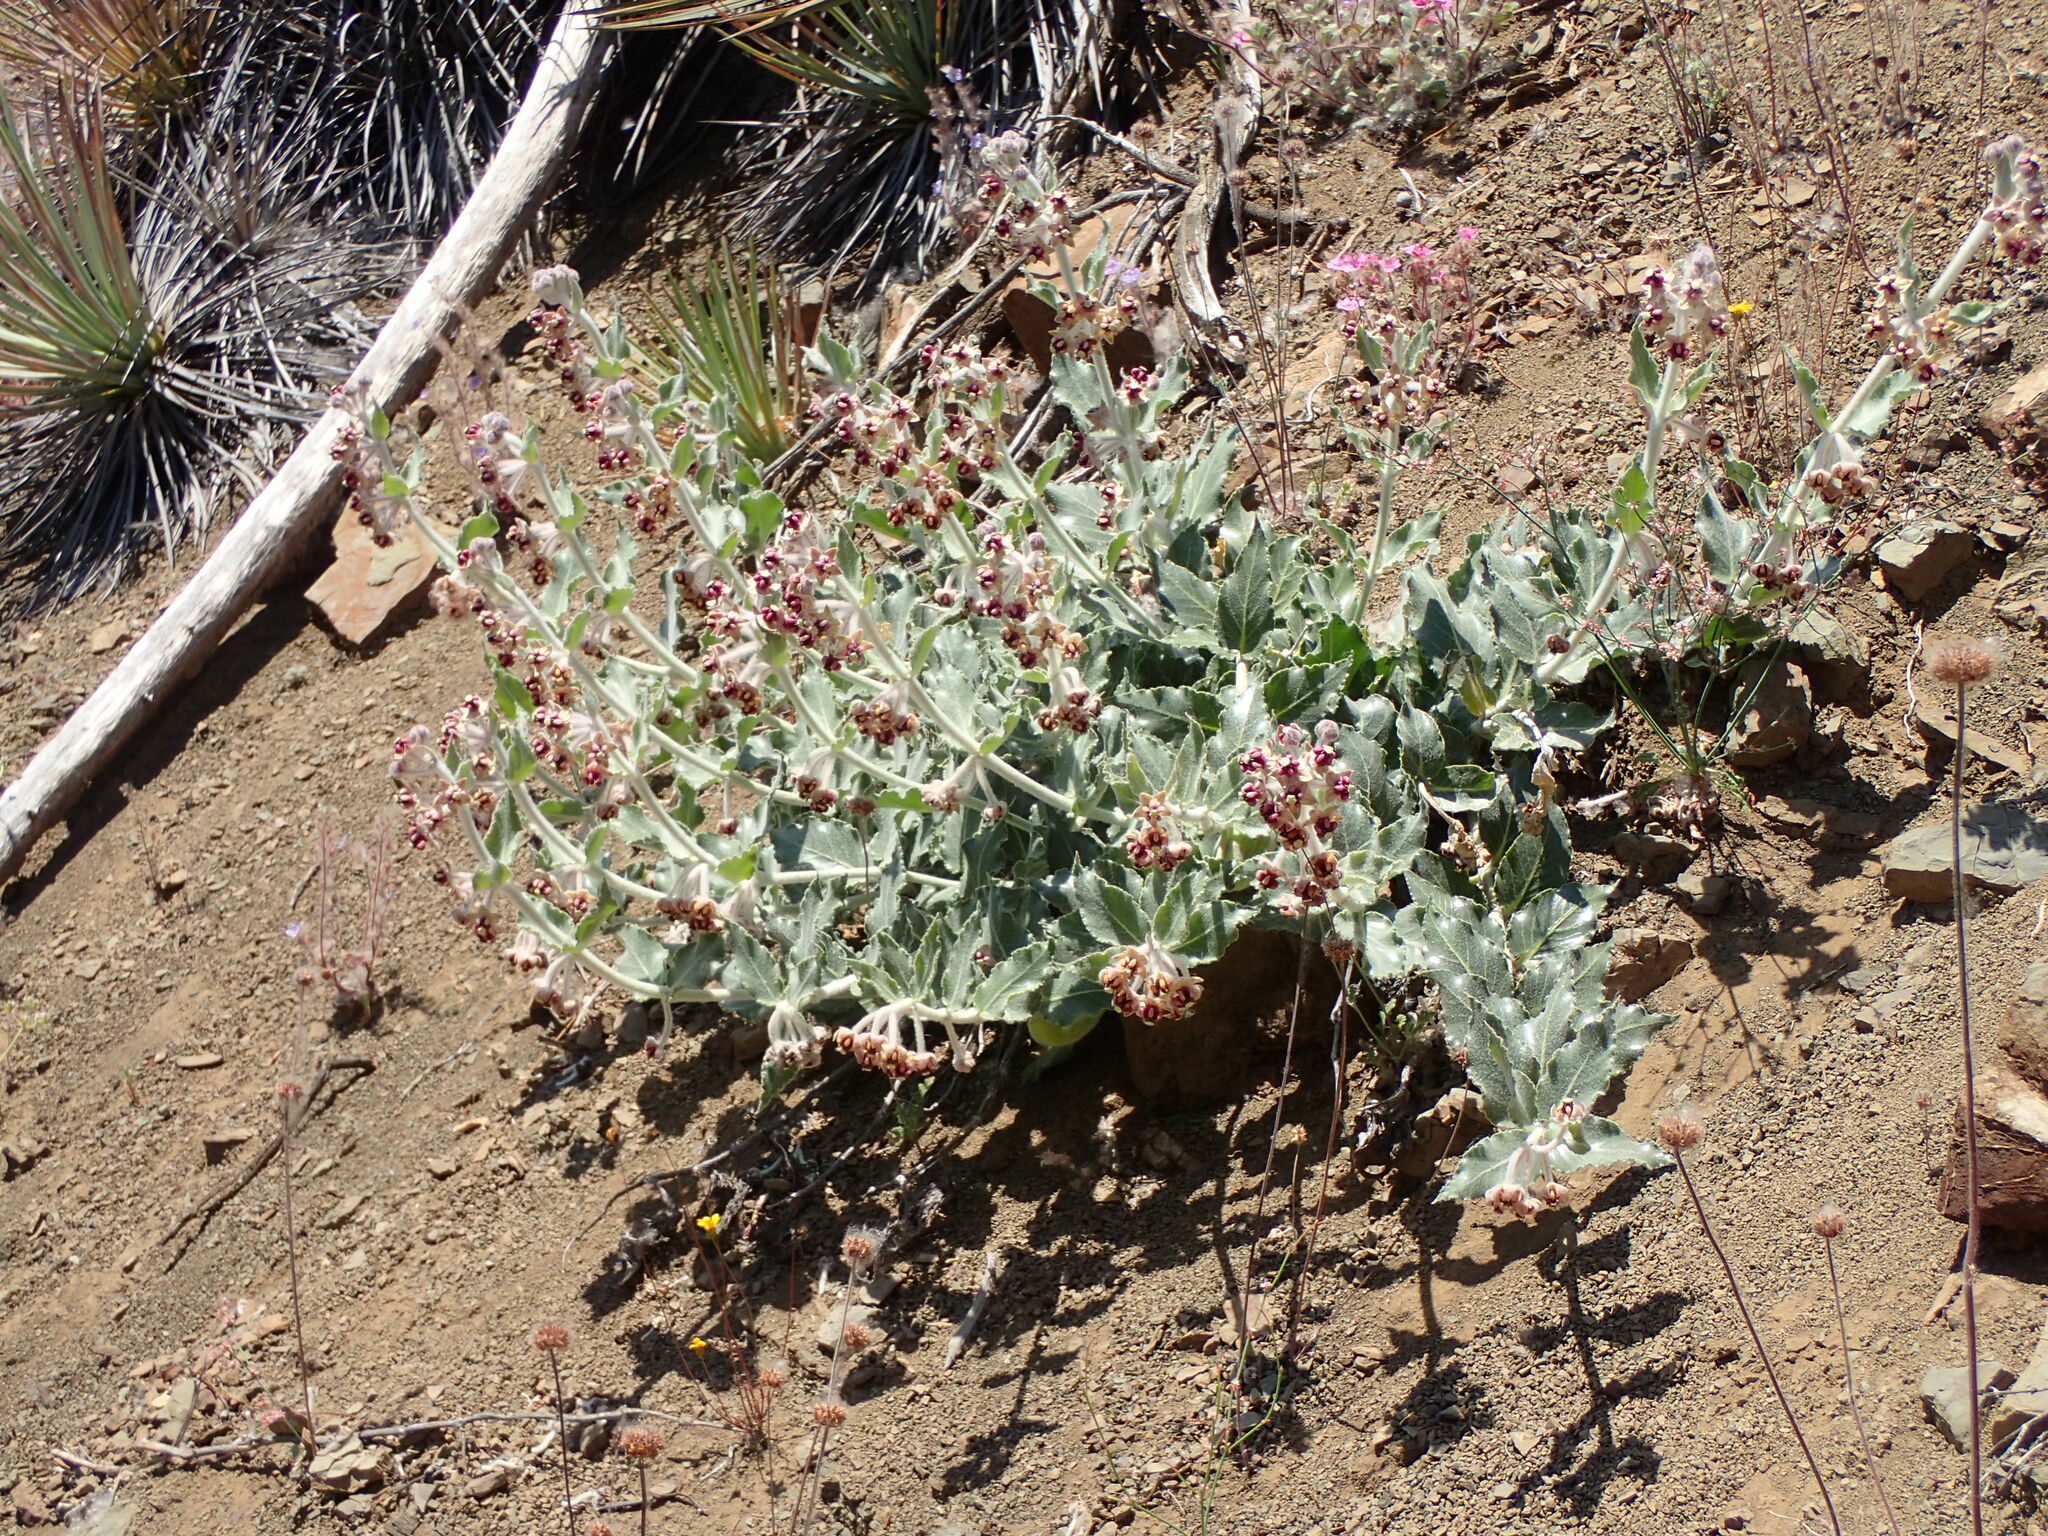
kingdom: Plantae
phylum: Tracheophyta
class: Magnoliopsida
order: Gentianales
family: Apocynaceae
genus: Asclepias
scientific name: Asclepias californica
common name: California milkweed
